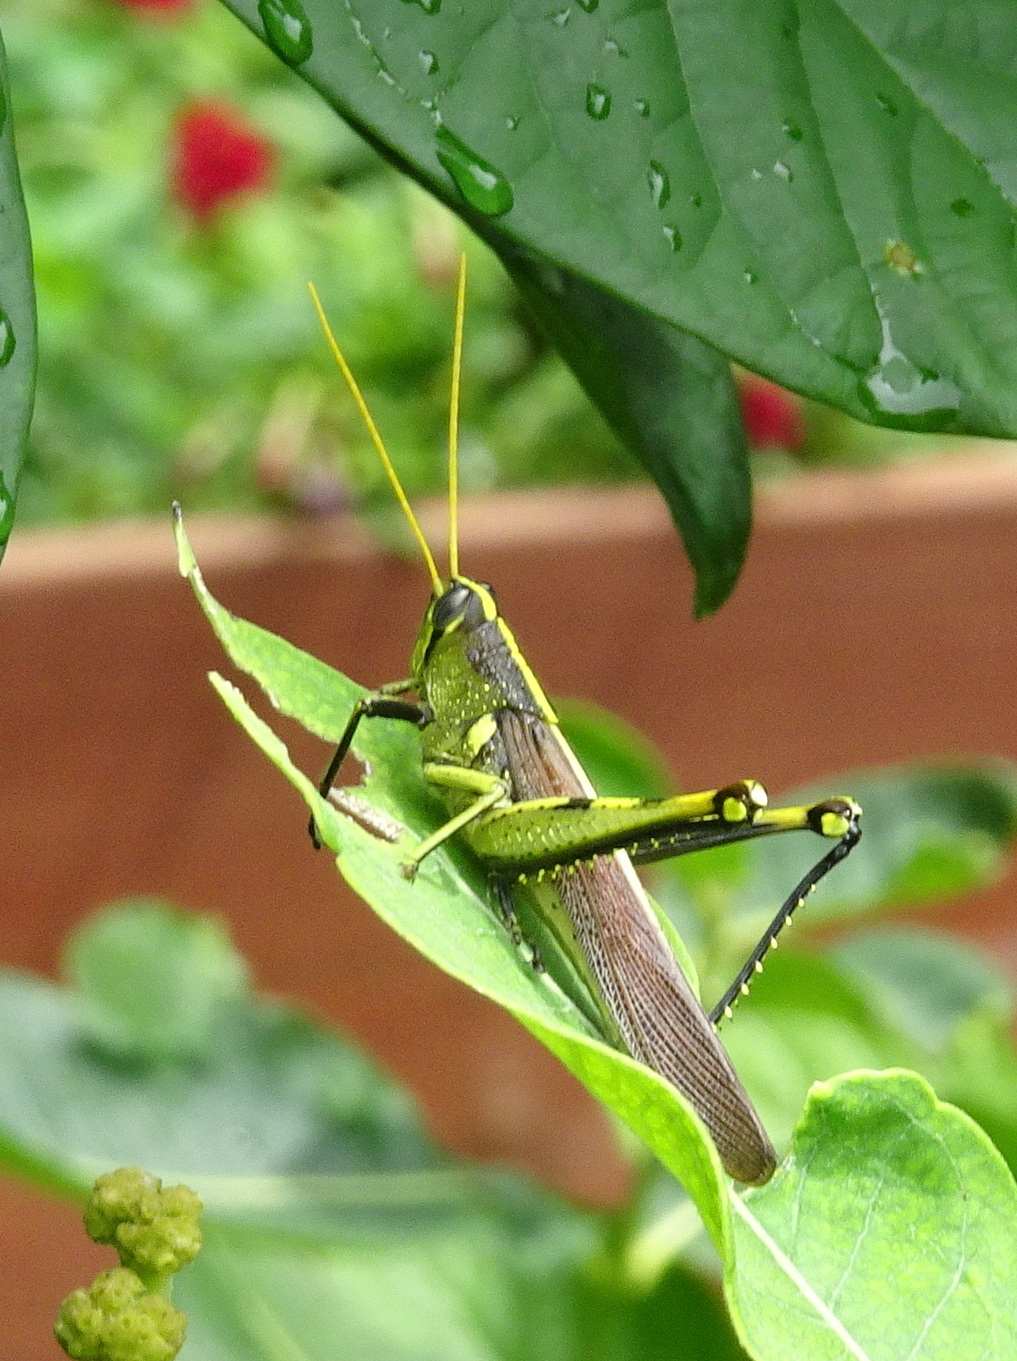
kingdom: Animalia
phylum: Arthropoda
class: Insecta
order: Orthoptera
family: Acrididae
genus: Schistocerca
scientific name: Schistocerca obscura
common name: Obscure bird grasshopper
